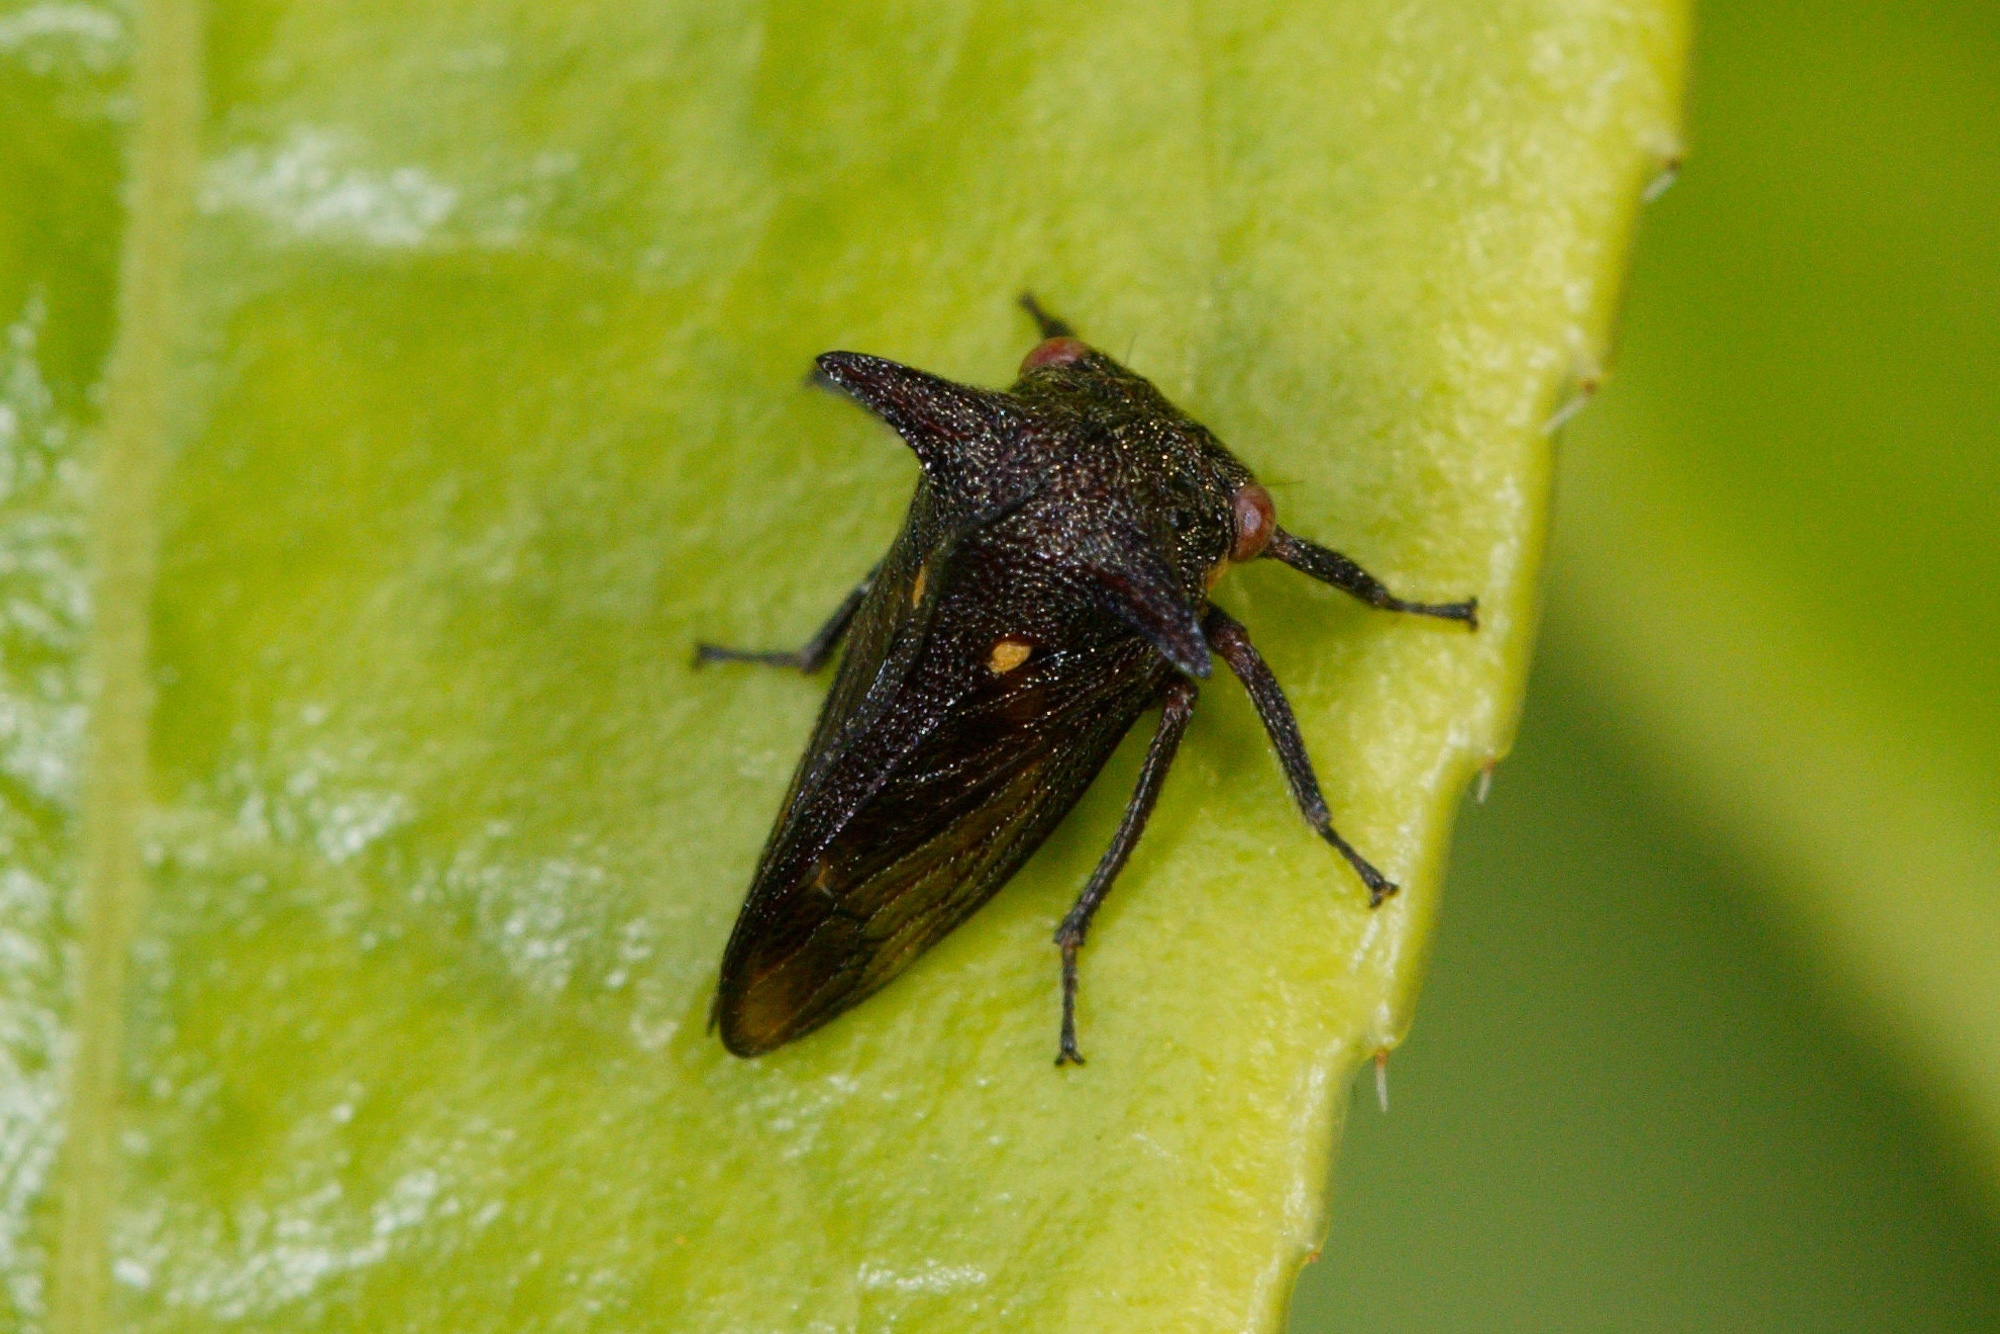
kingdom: Animalia
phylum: Arthropoda
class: Insecta
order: Hemiptera
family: Membracidae
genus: Acanthuchus
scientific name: Acanthuchus trispinifer
